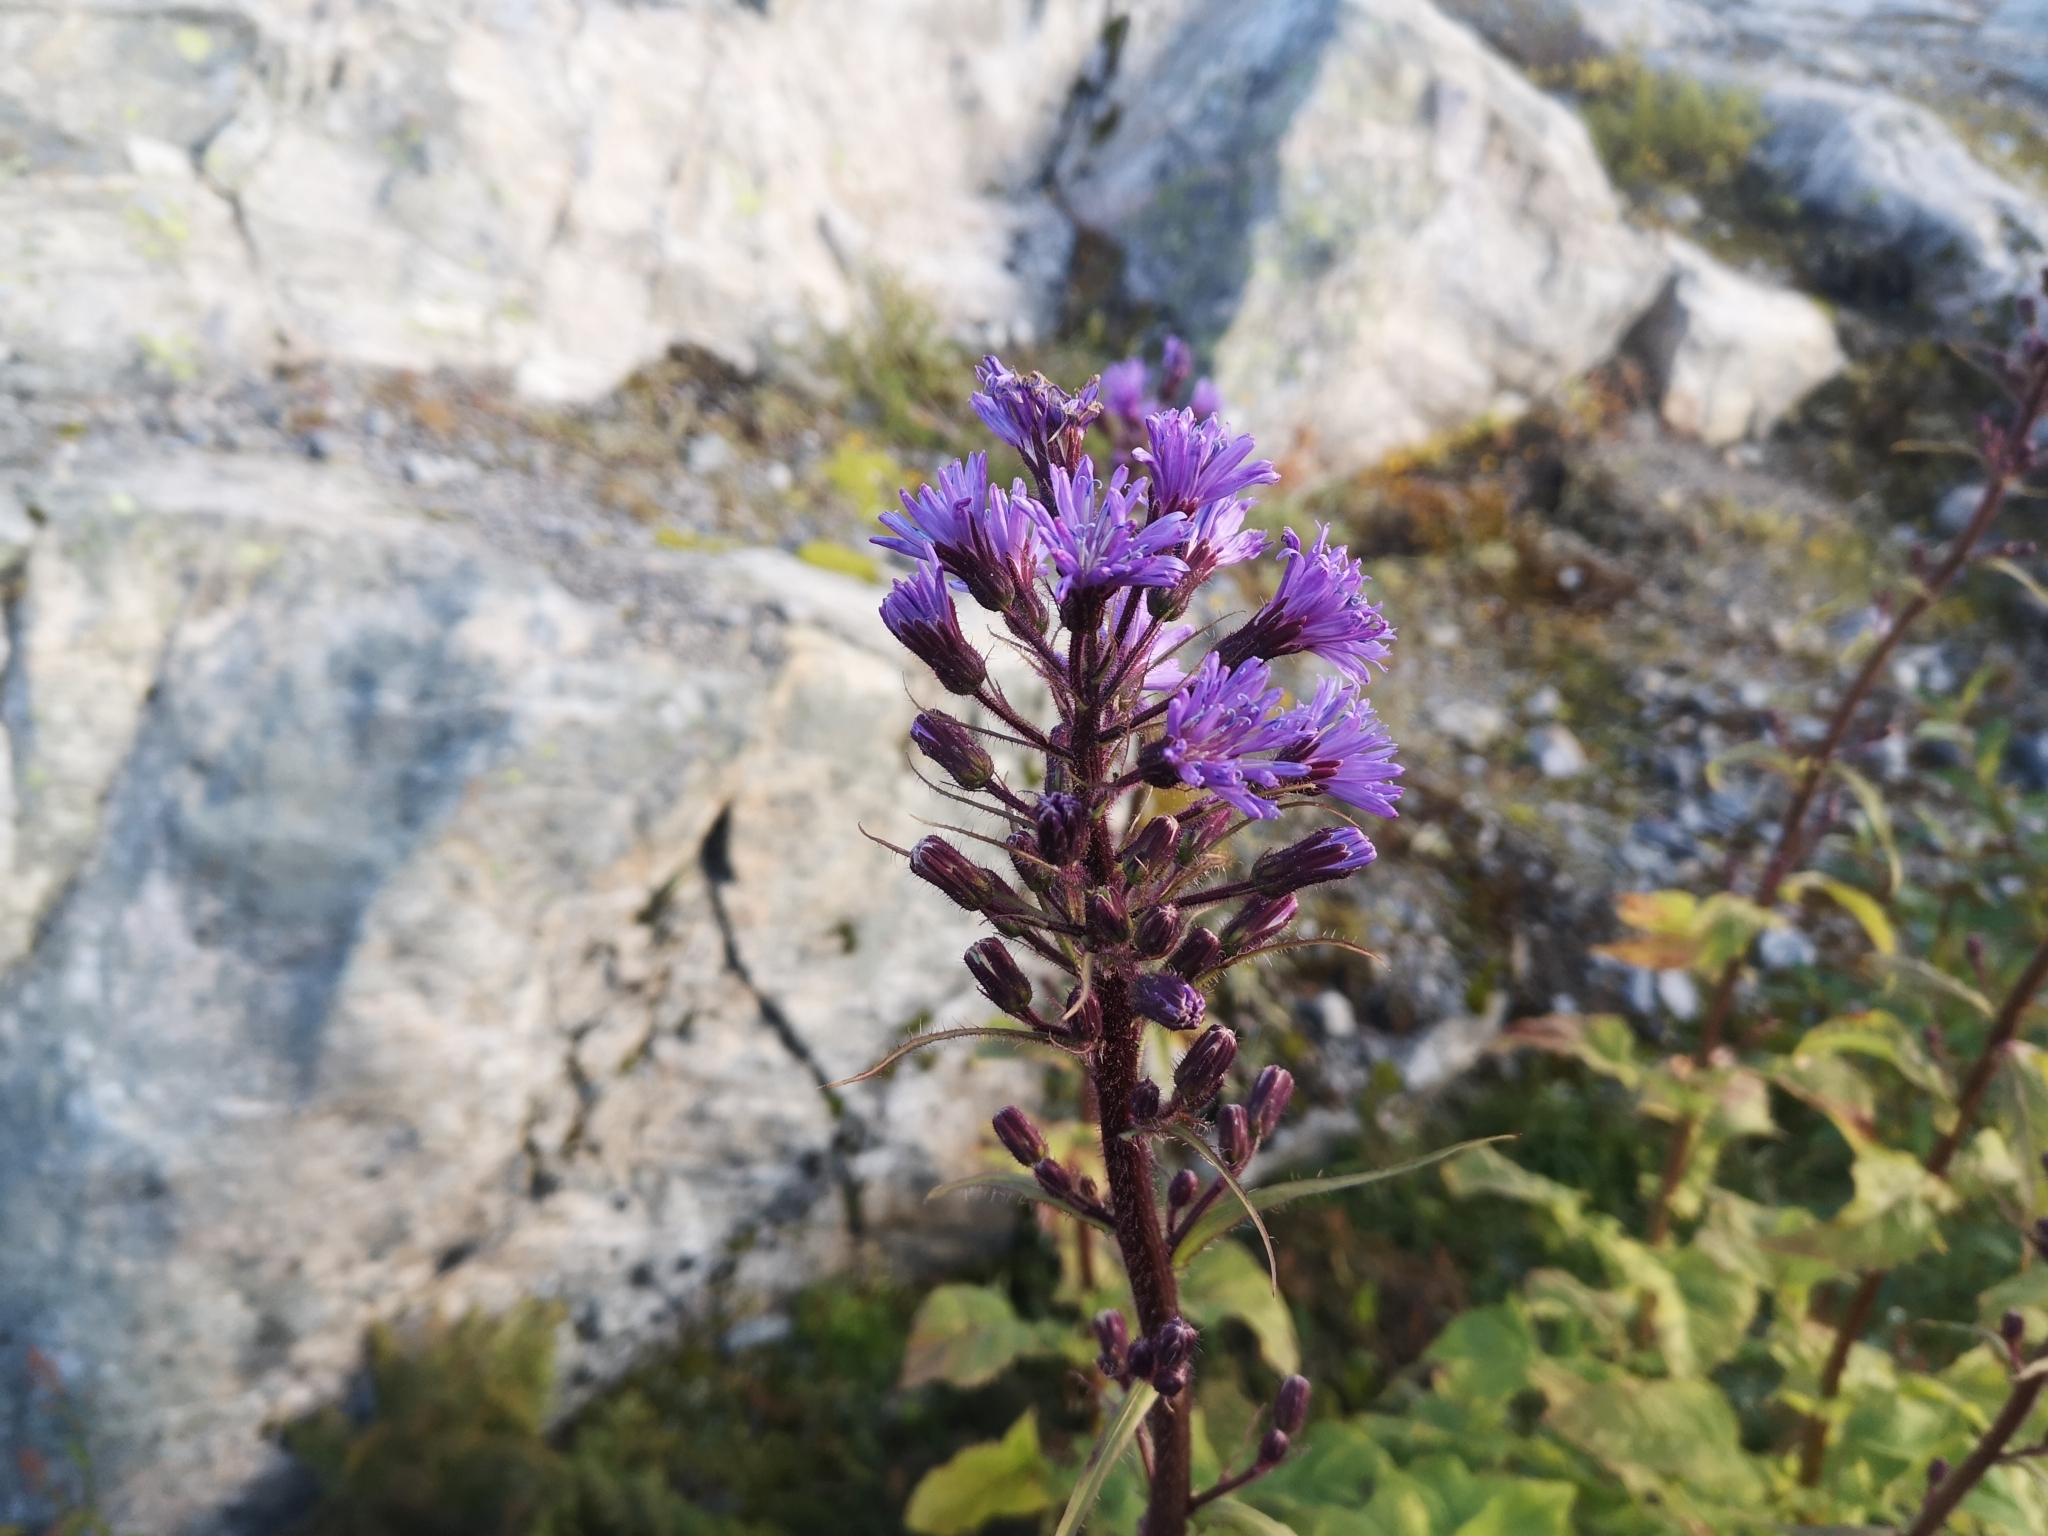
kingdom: Plantae
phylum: Tracheophyta
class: Magnoliopsida
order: Asterales
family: Asteraceae
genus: Cicerbita
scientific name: Cicerbita alpina
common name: Alpine blue-sow-thistle
